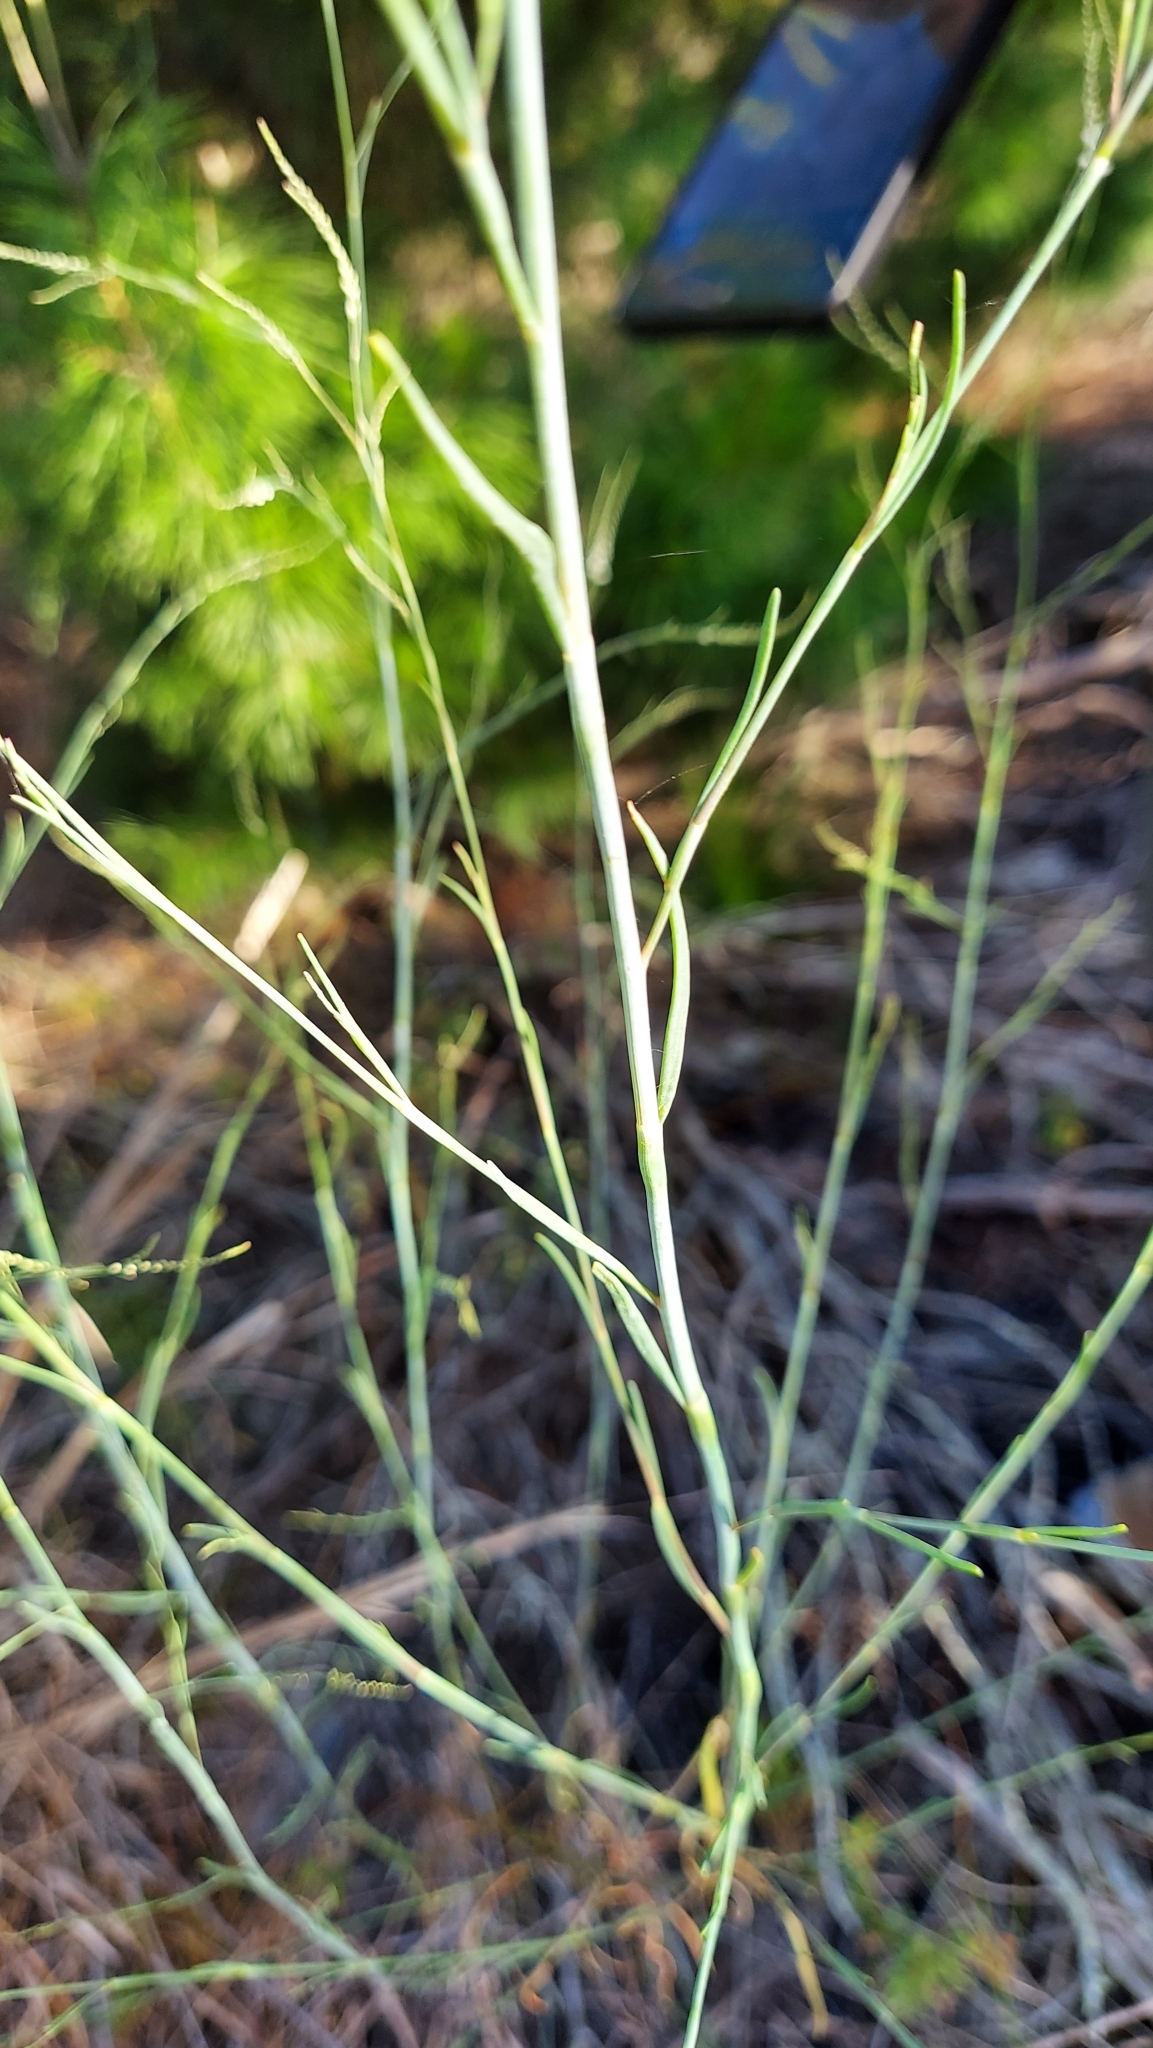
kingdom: Plantae
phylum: Tracheophyta
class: Magnoliopsida
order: Caryophyllales
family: Polygonaceae
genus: Polygonella
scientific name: Polygonella gracilis
